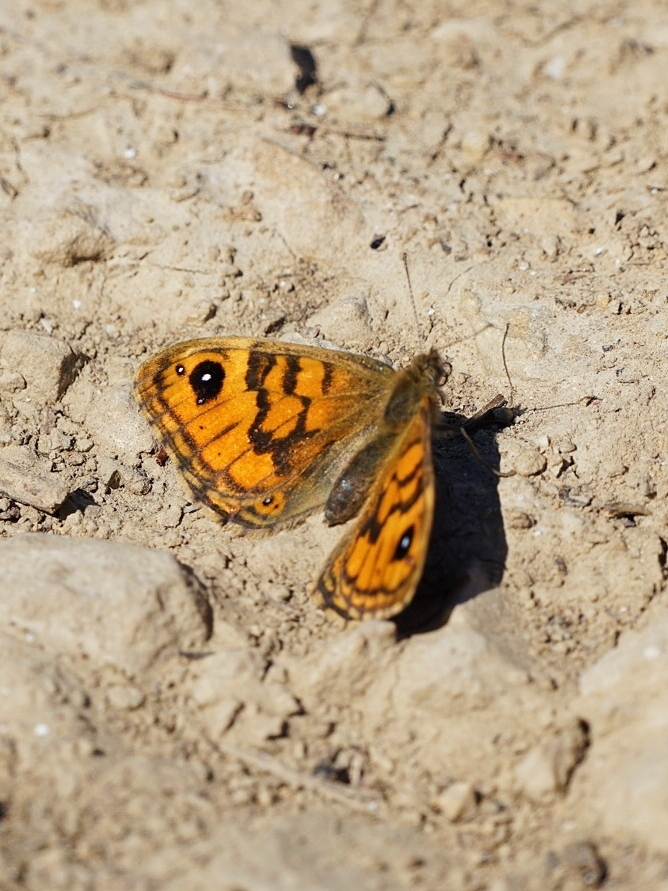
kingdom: Animalia
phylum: Arthropoda
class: Insecta
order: Lepidoptera
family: Nymphalidae
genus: Pararge
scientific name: Pararge Lasiommata megera
